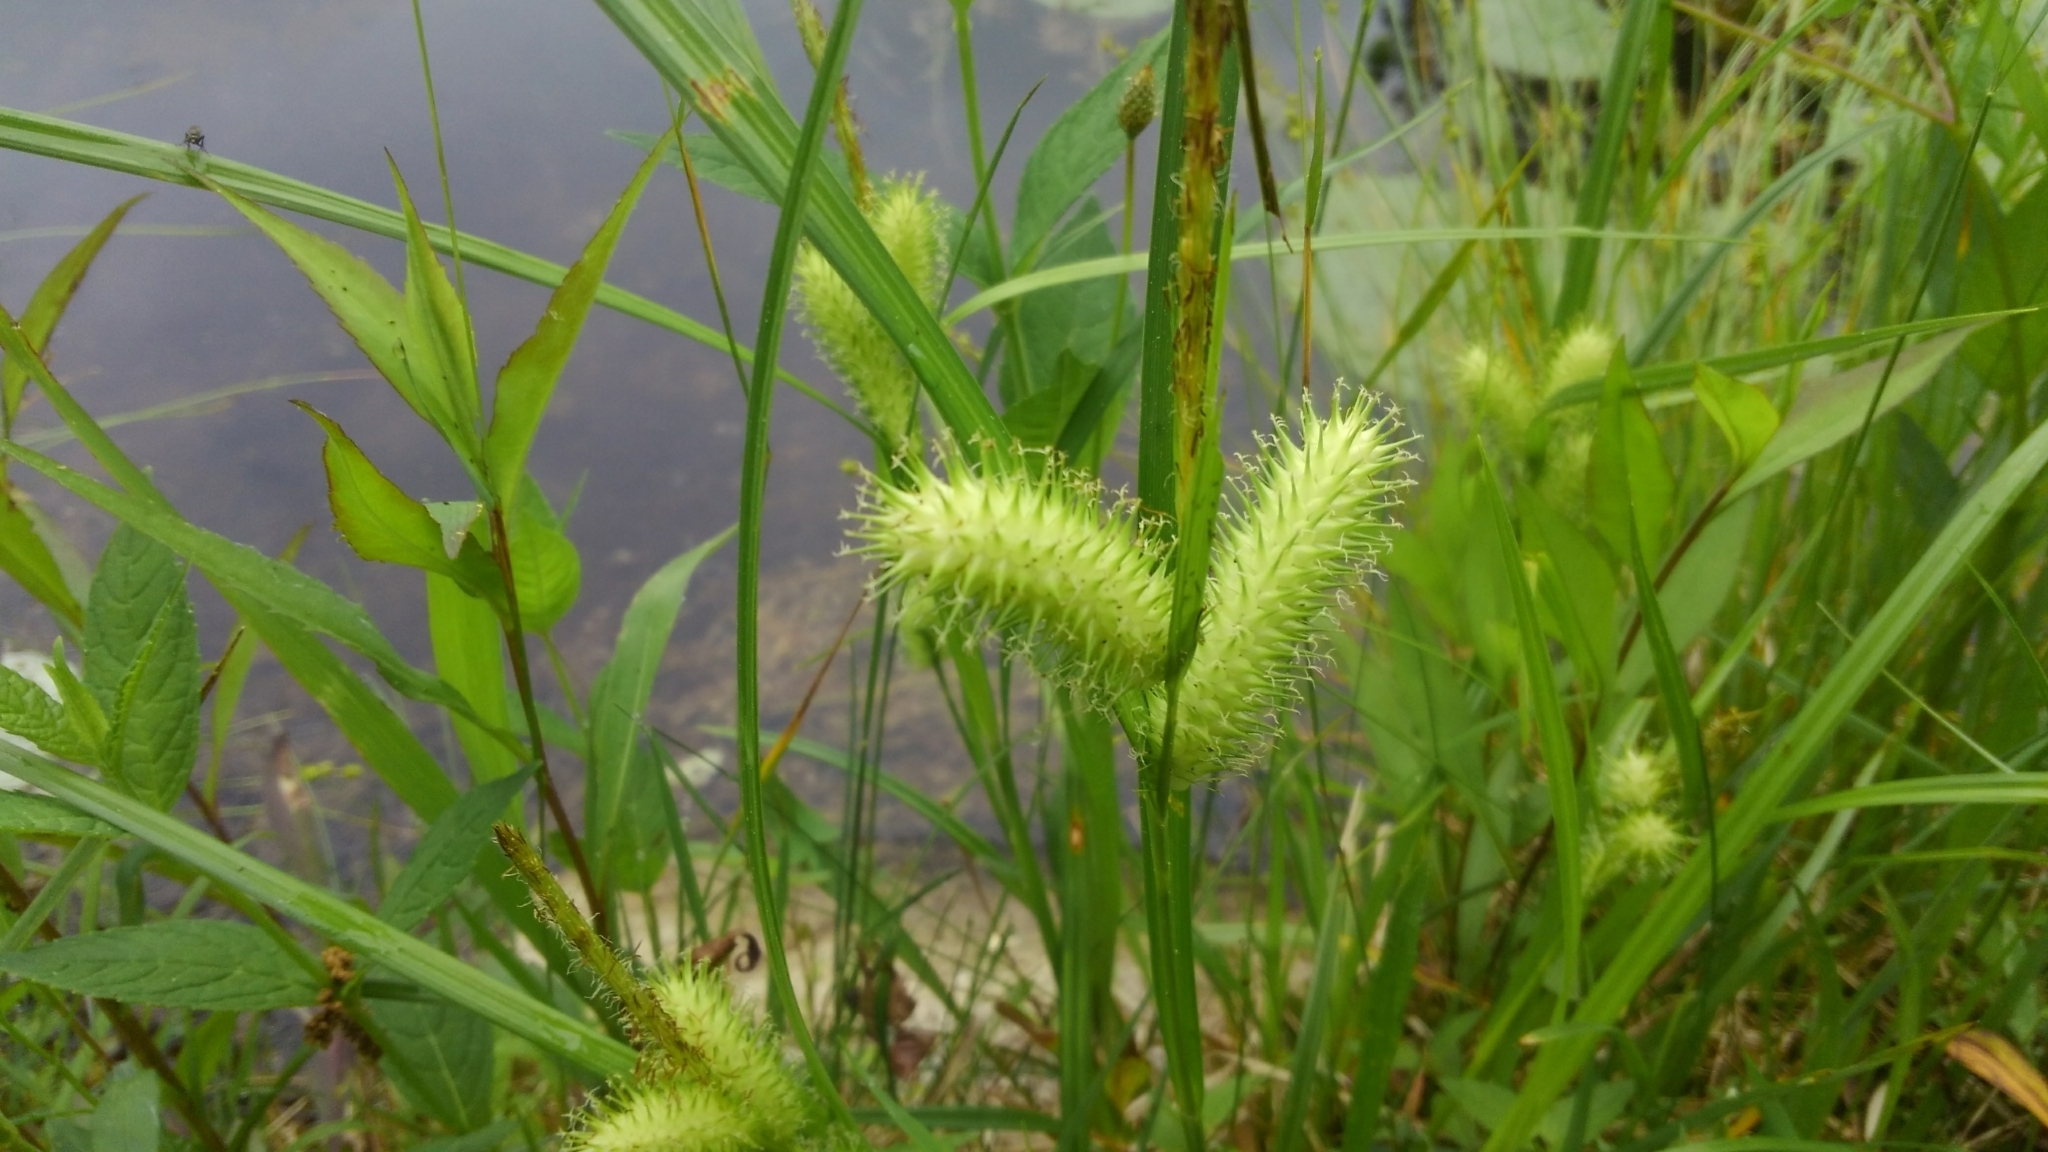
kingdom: Plantae
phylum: Tracheophyta
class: Liliopsida
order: Poales
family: Cyperaceae
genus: Carex
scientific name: Carex lurida
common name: Sallow sedge
